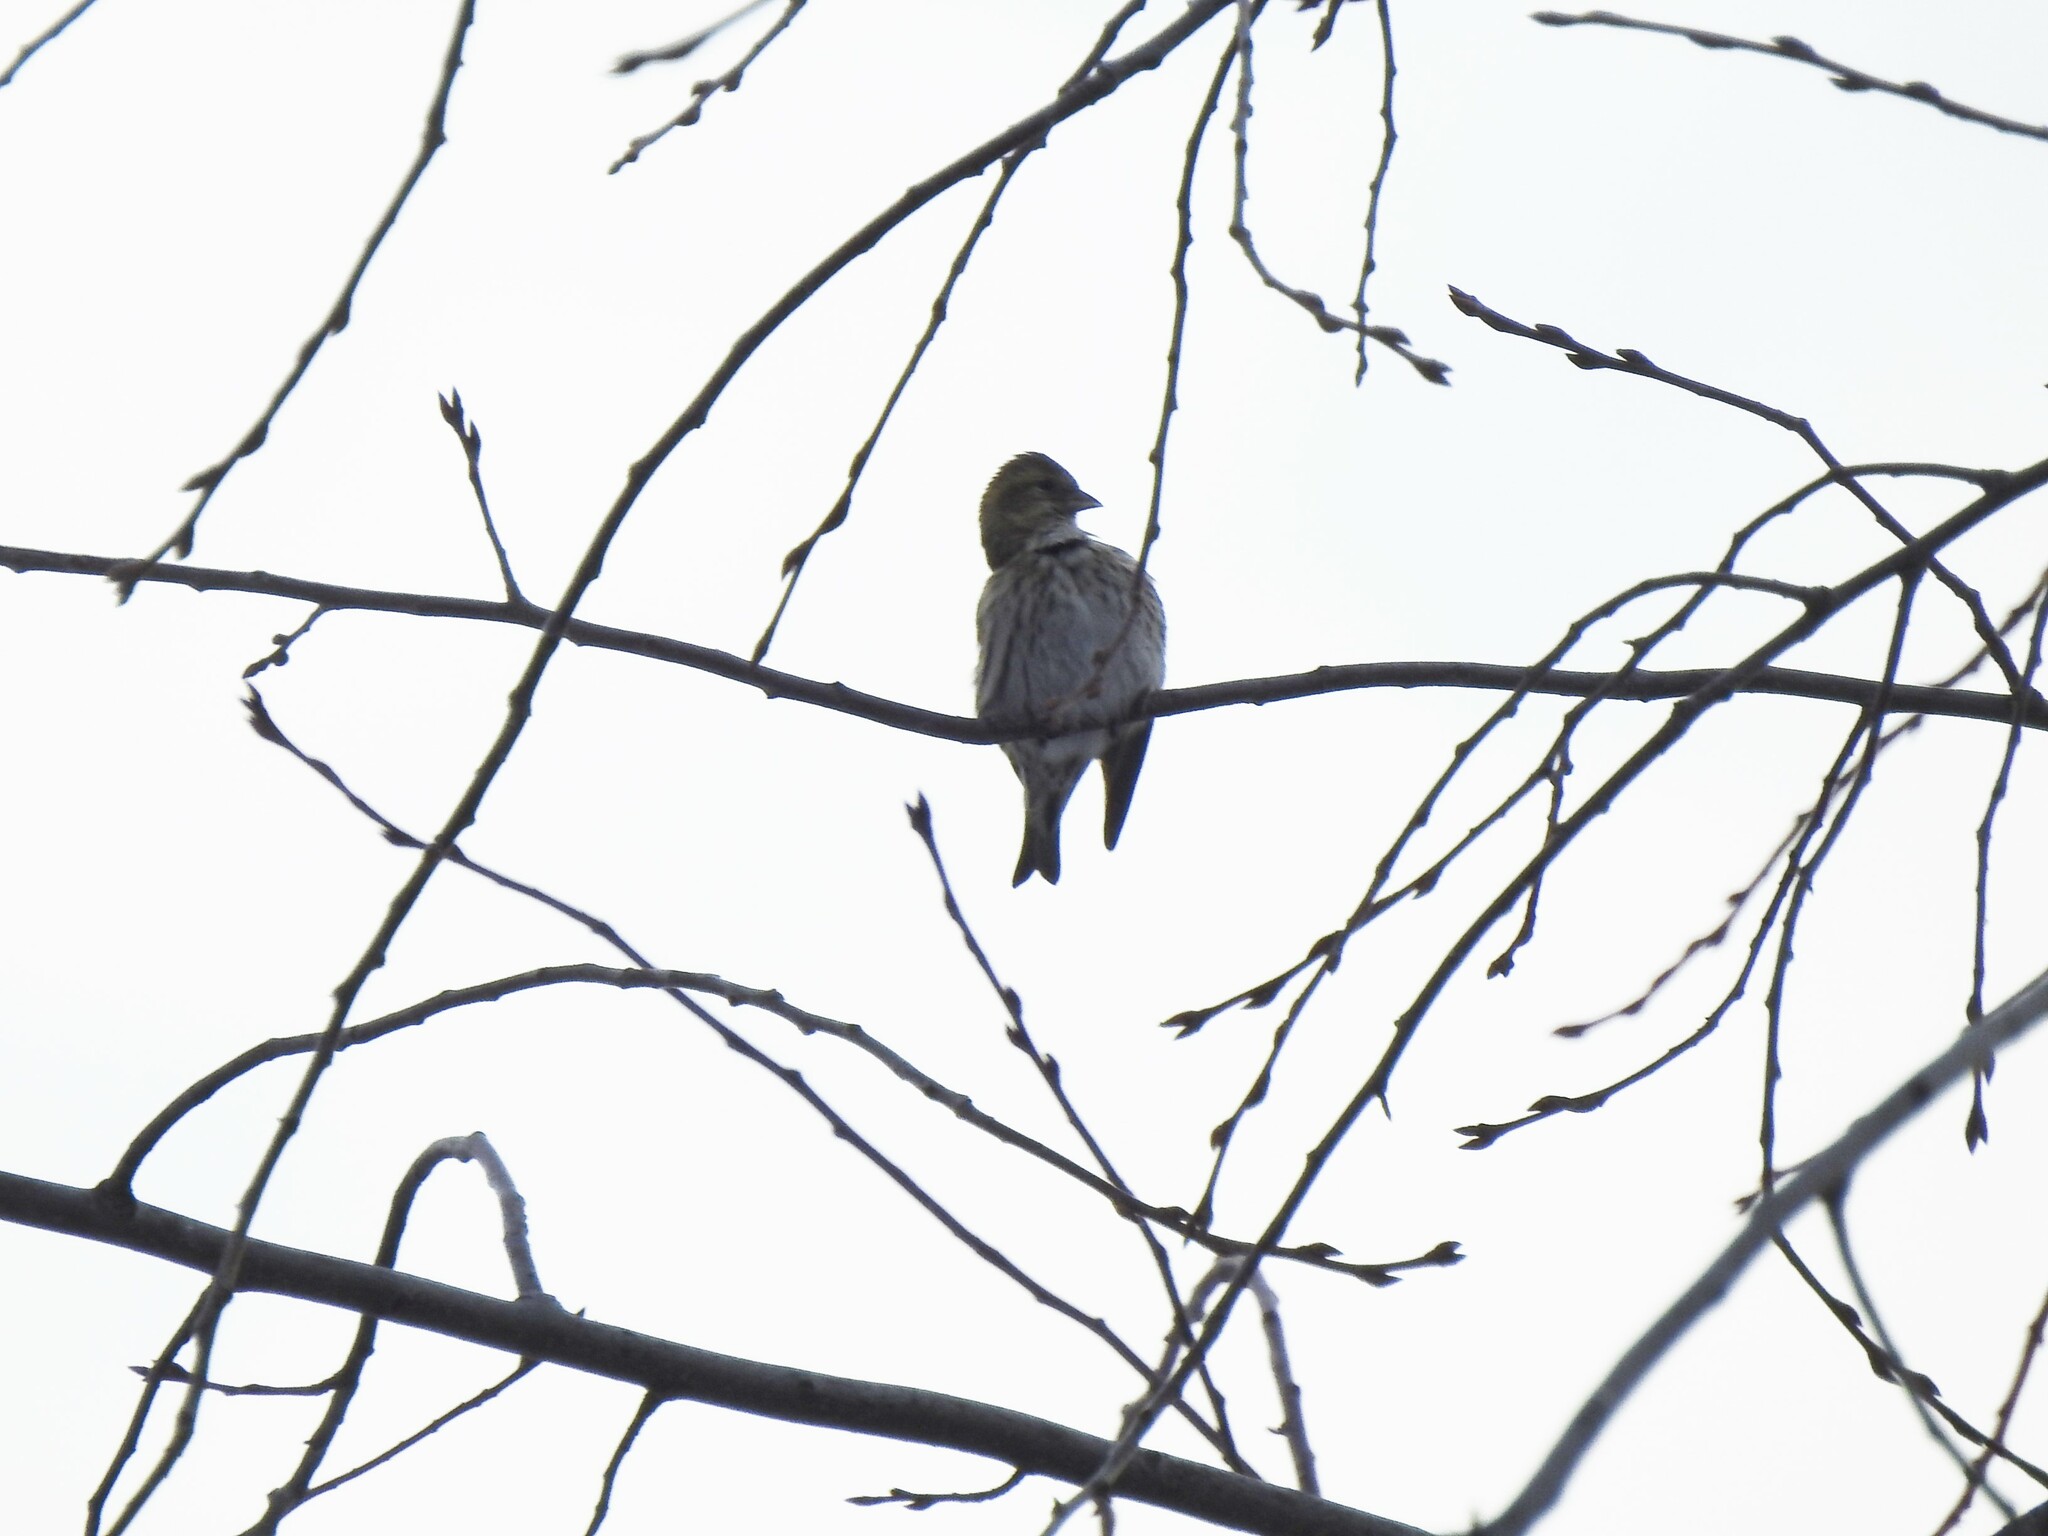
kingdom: Animalia
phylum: Chordata
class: Aves
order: Passeriformes
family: Fringillidae
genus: Spinus
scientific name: Spinus spinus
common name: Eurasian siskin
